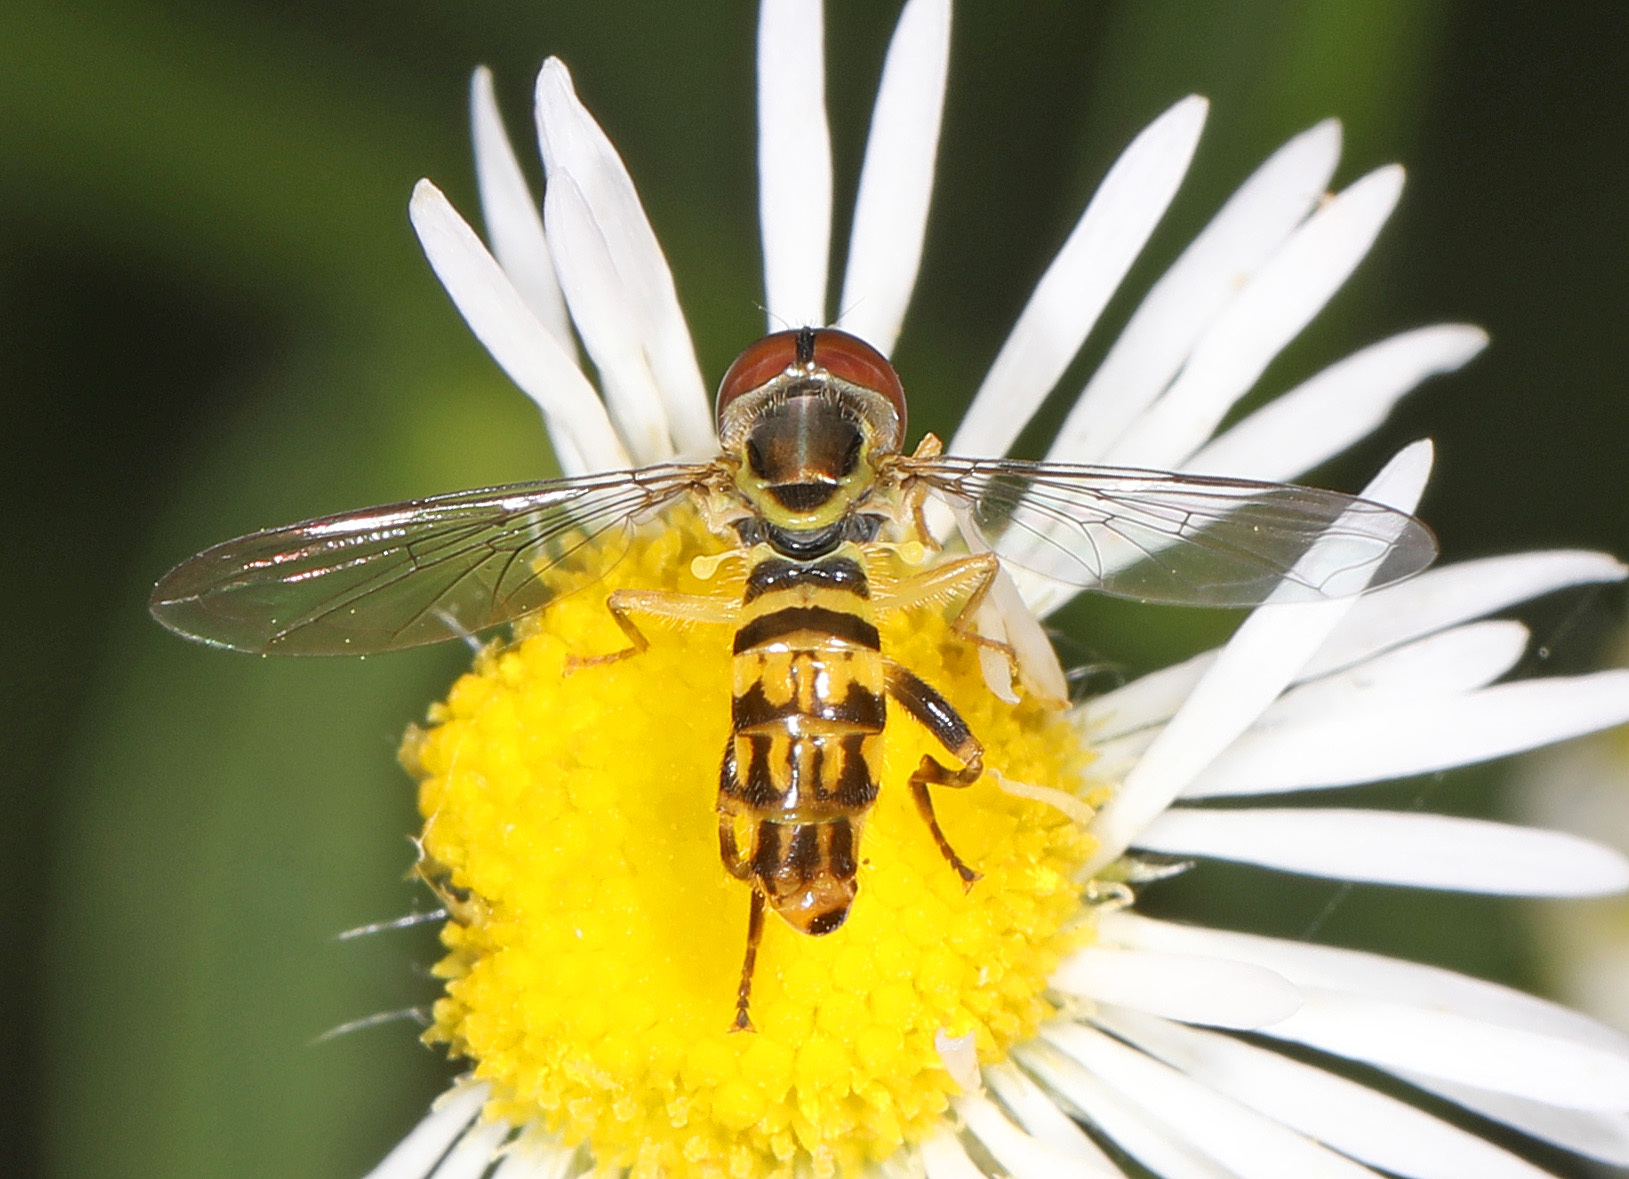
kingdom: Animalia
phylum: Arthropoda
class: Insecta
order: Diptera
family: Syrphidae
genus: Toxomerus
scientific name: Toxomerus geminatus
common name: Eastern calligrapher
